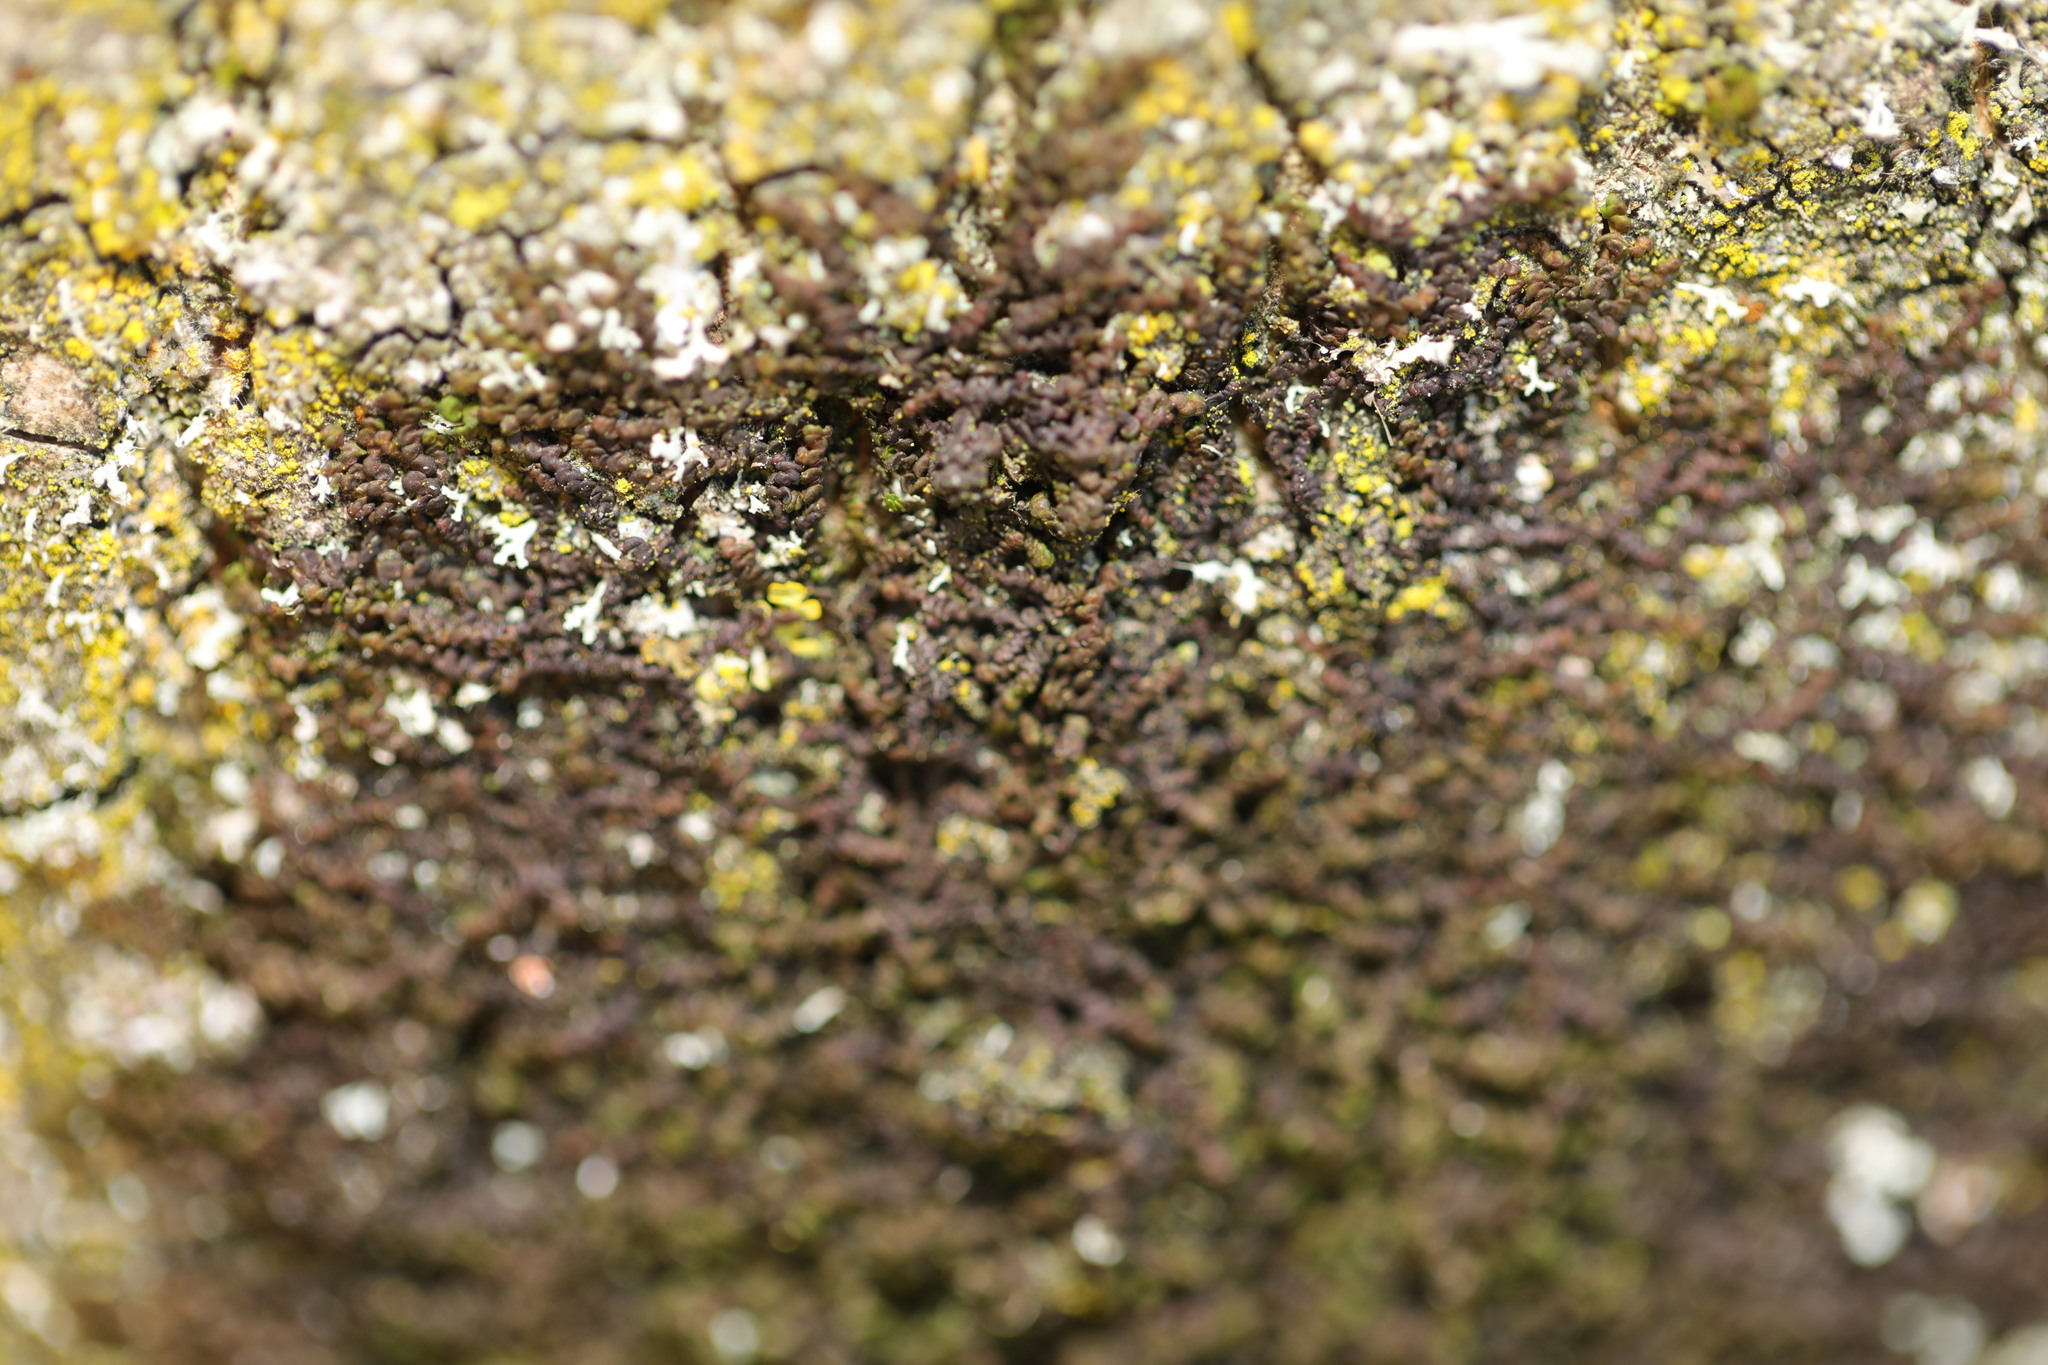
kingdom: Plantae
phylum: Marchantiophyta
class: Jungermanniopsida
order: Porellales
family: Frullaniaceae
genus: Frullania
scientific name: Frullania dilatata
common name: Dilated scalewort
